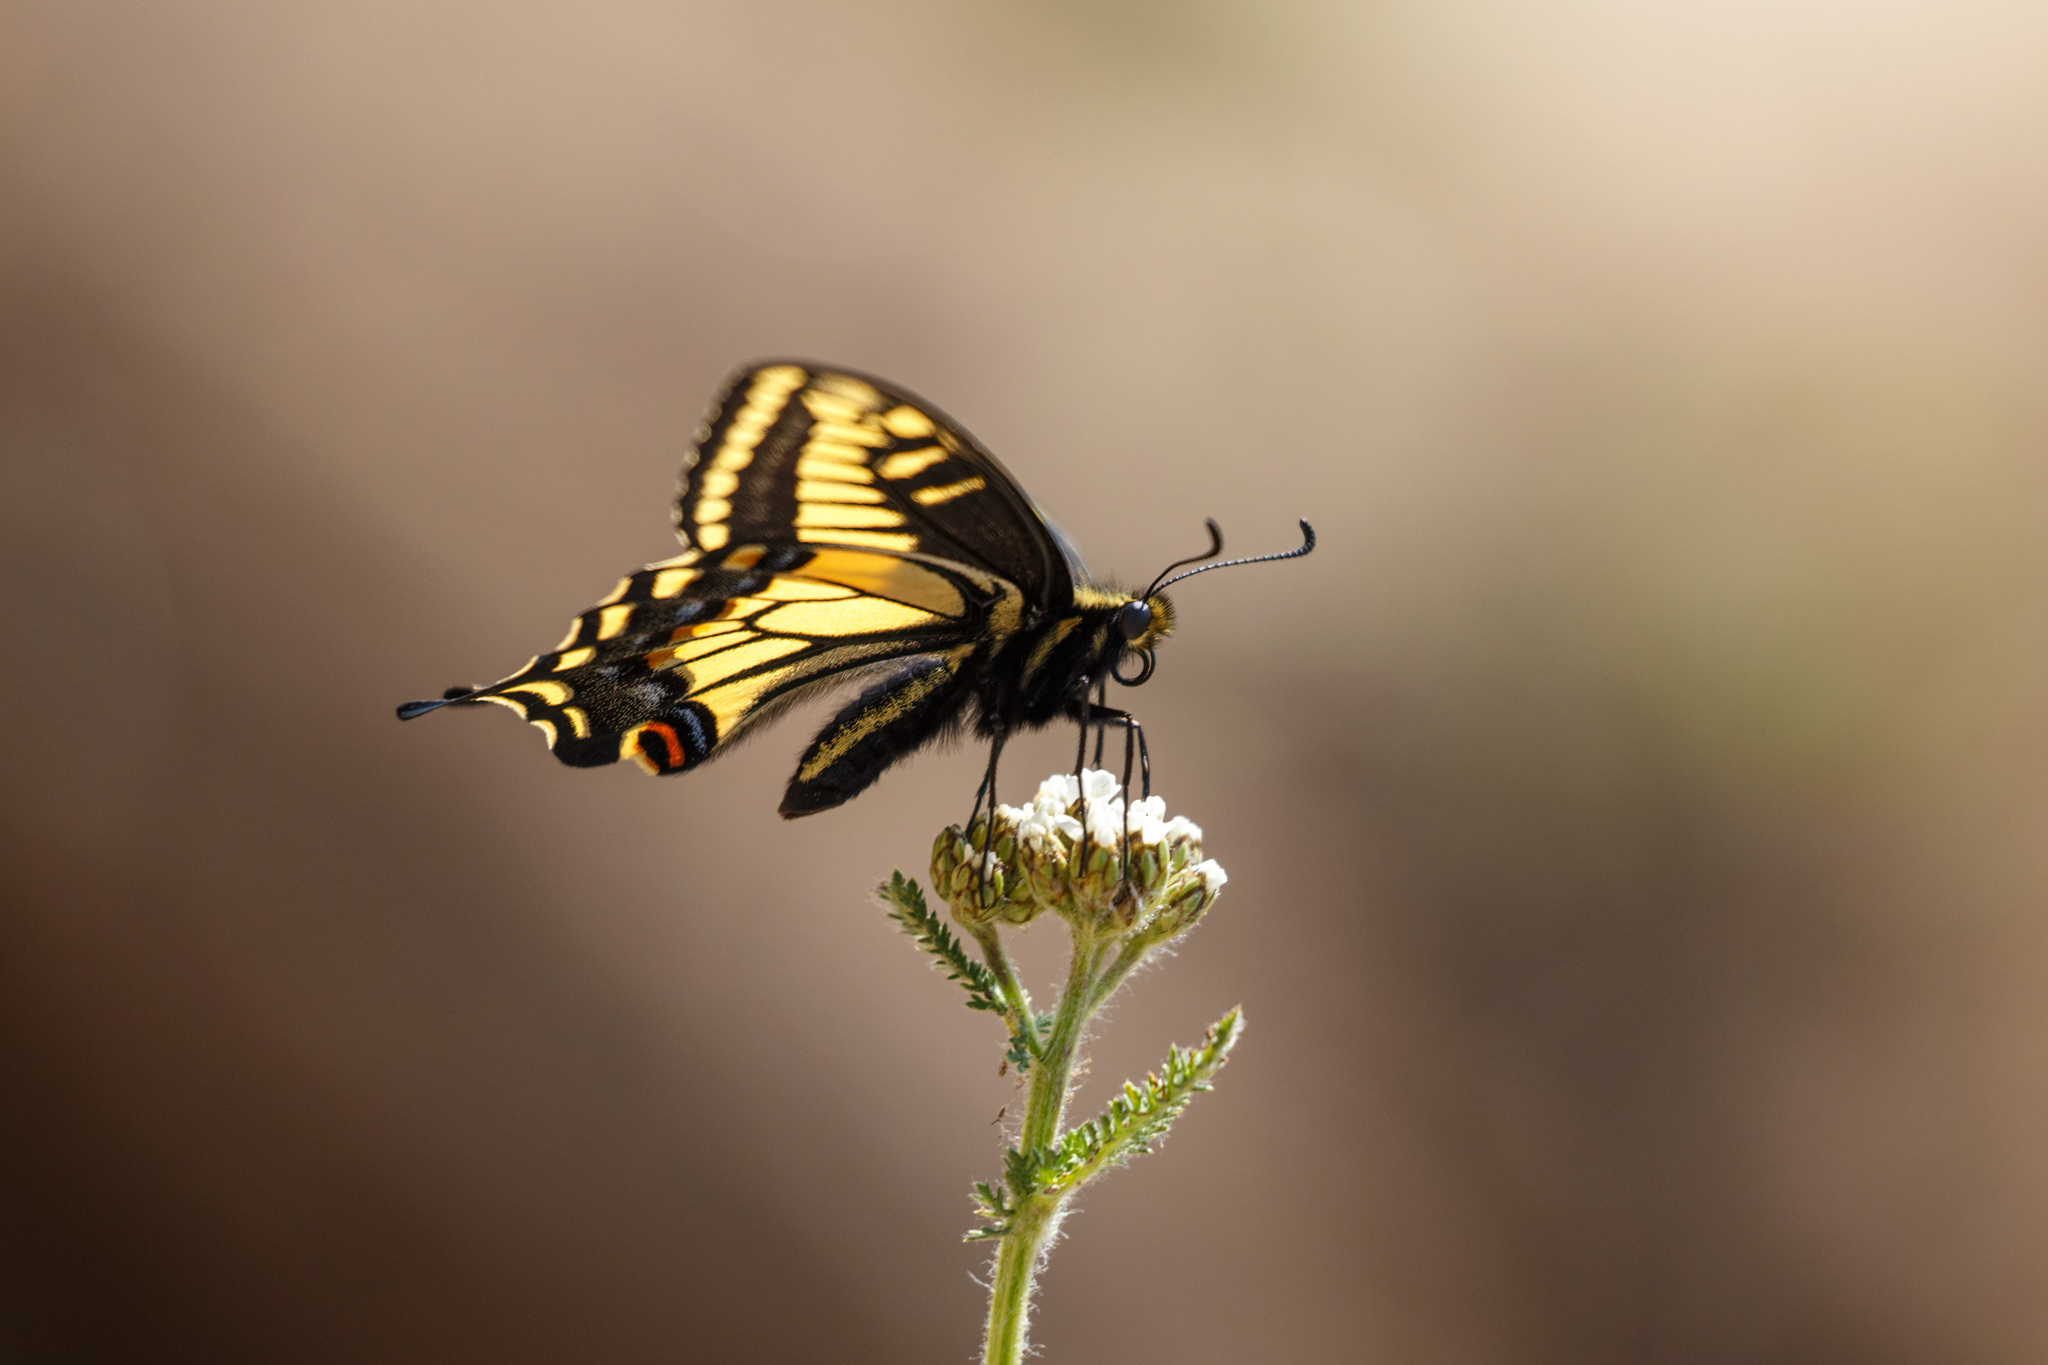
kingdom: Animalia
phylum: Arthropoda
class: Insecta
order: Lepidoptera
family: Papilionidae
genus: Papilio
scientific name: Papilio zelicaon
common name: Anise swallowtail
